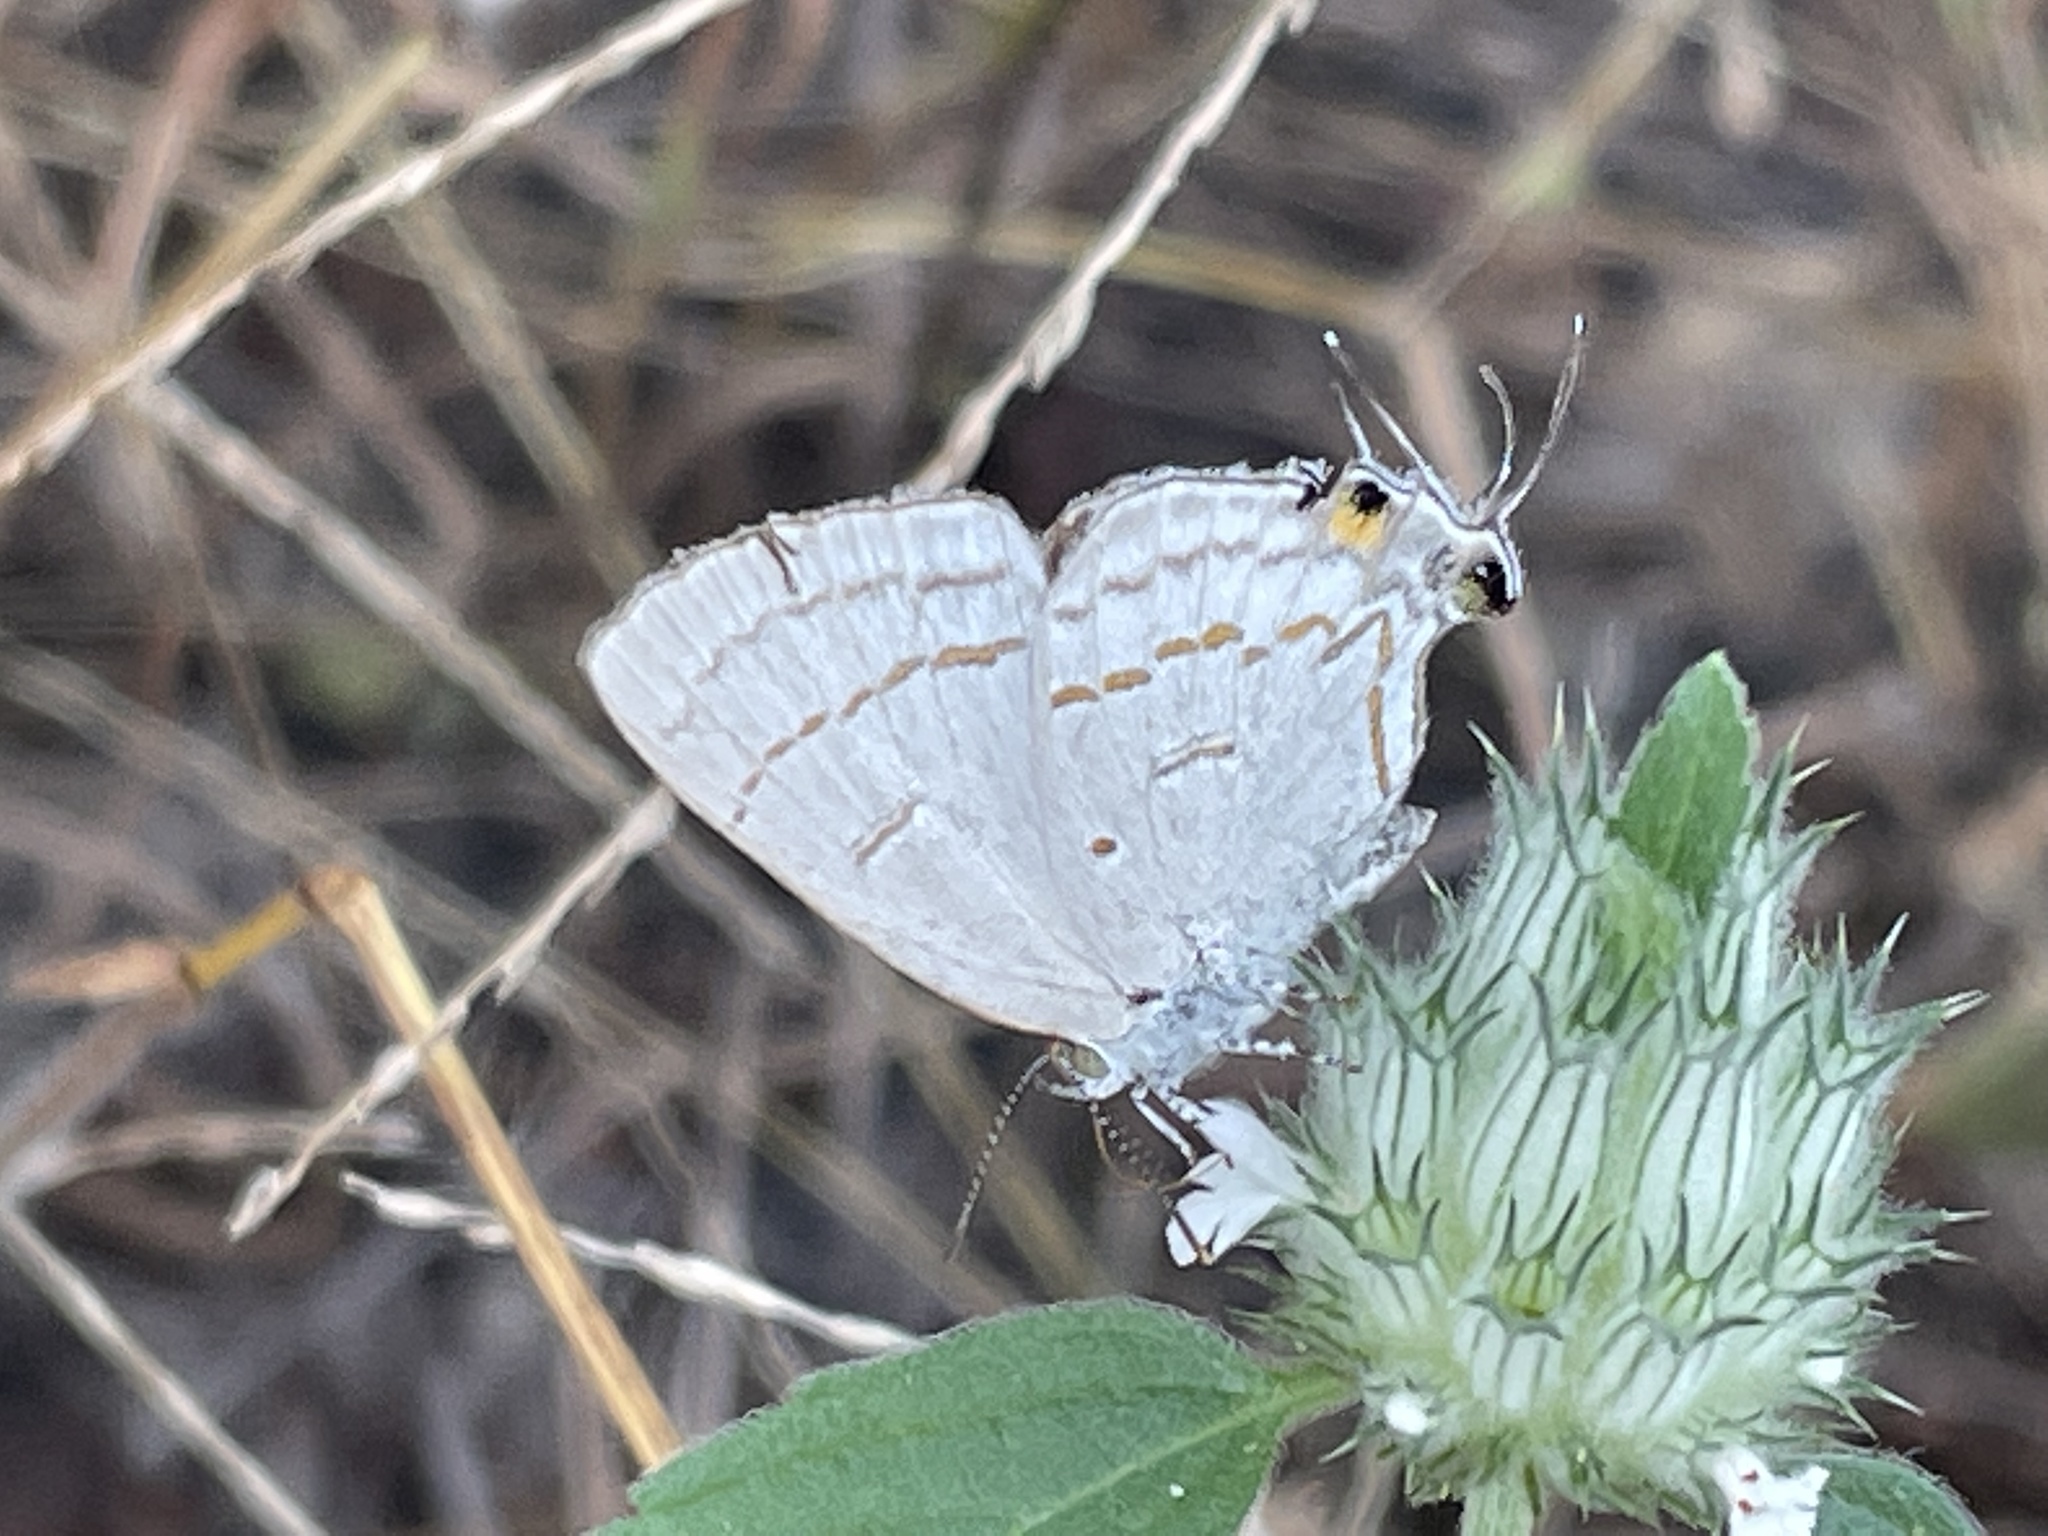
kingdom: Animalia
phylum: Arthropoda
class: Insecta
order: Lepidoptera
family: Lycaenidae
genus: Hypolycaena
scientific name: Hypolycaena philippus
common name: Common hairstreak
